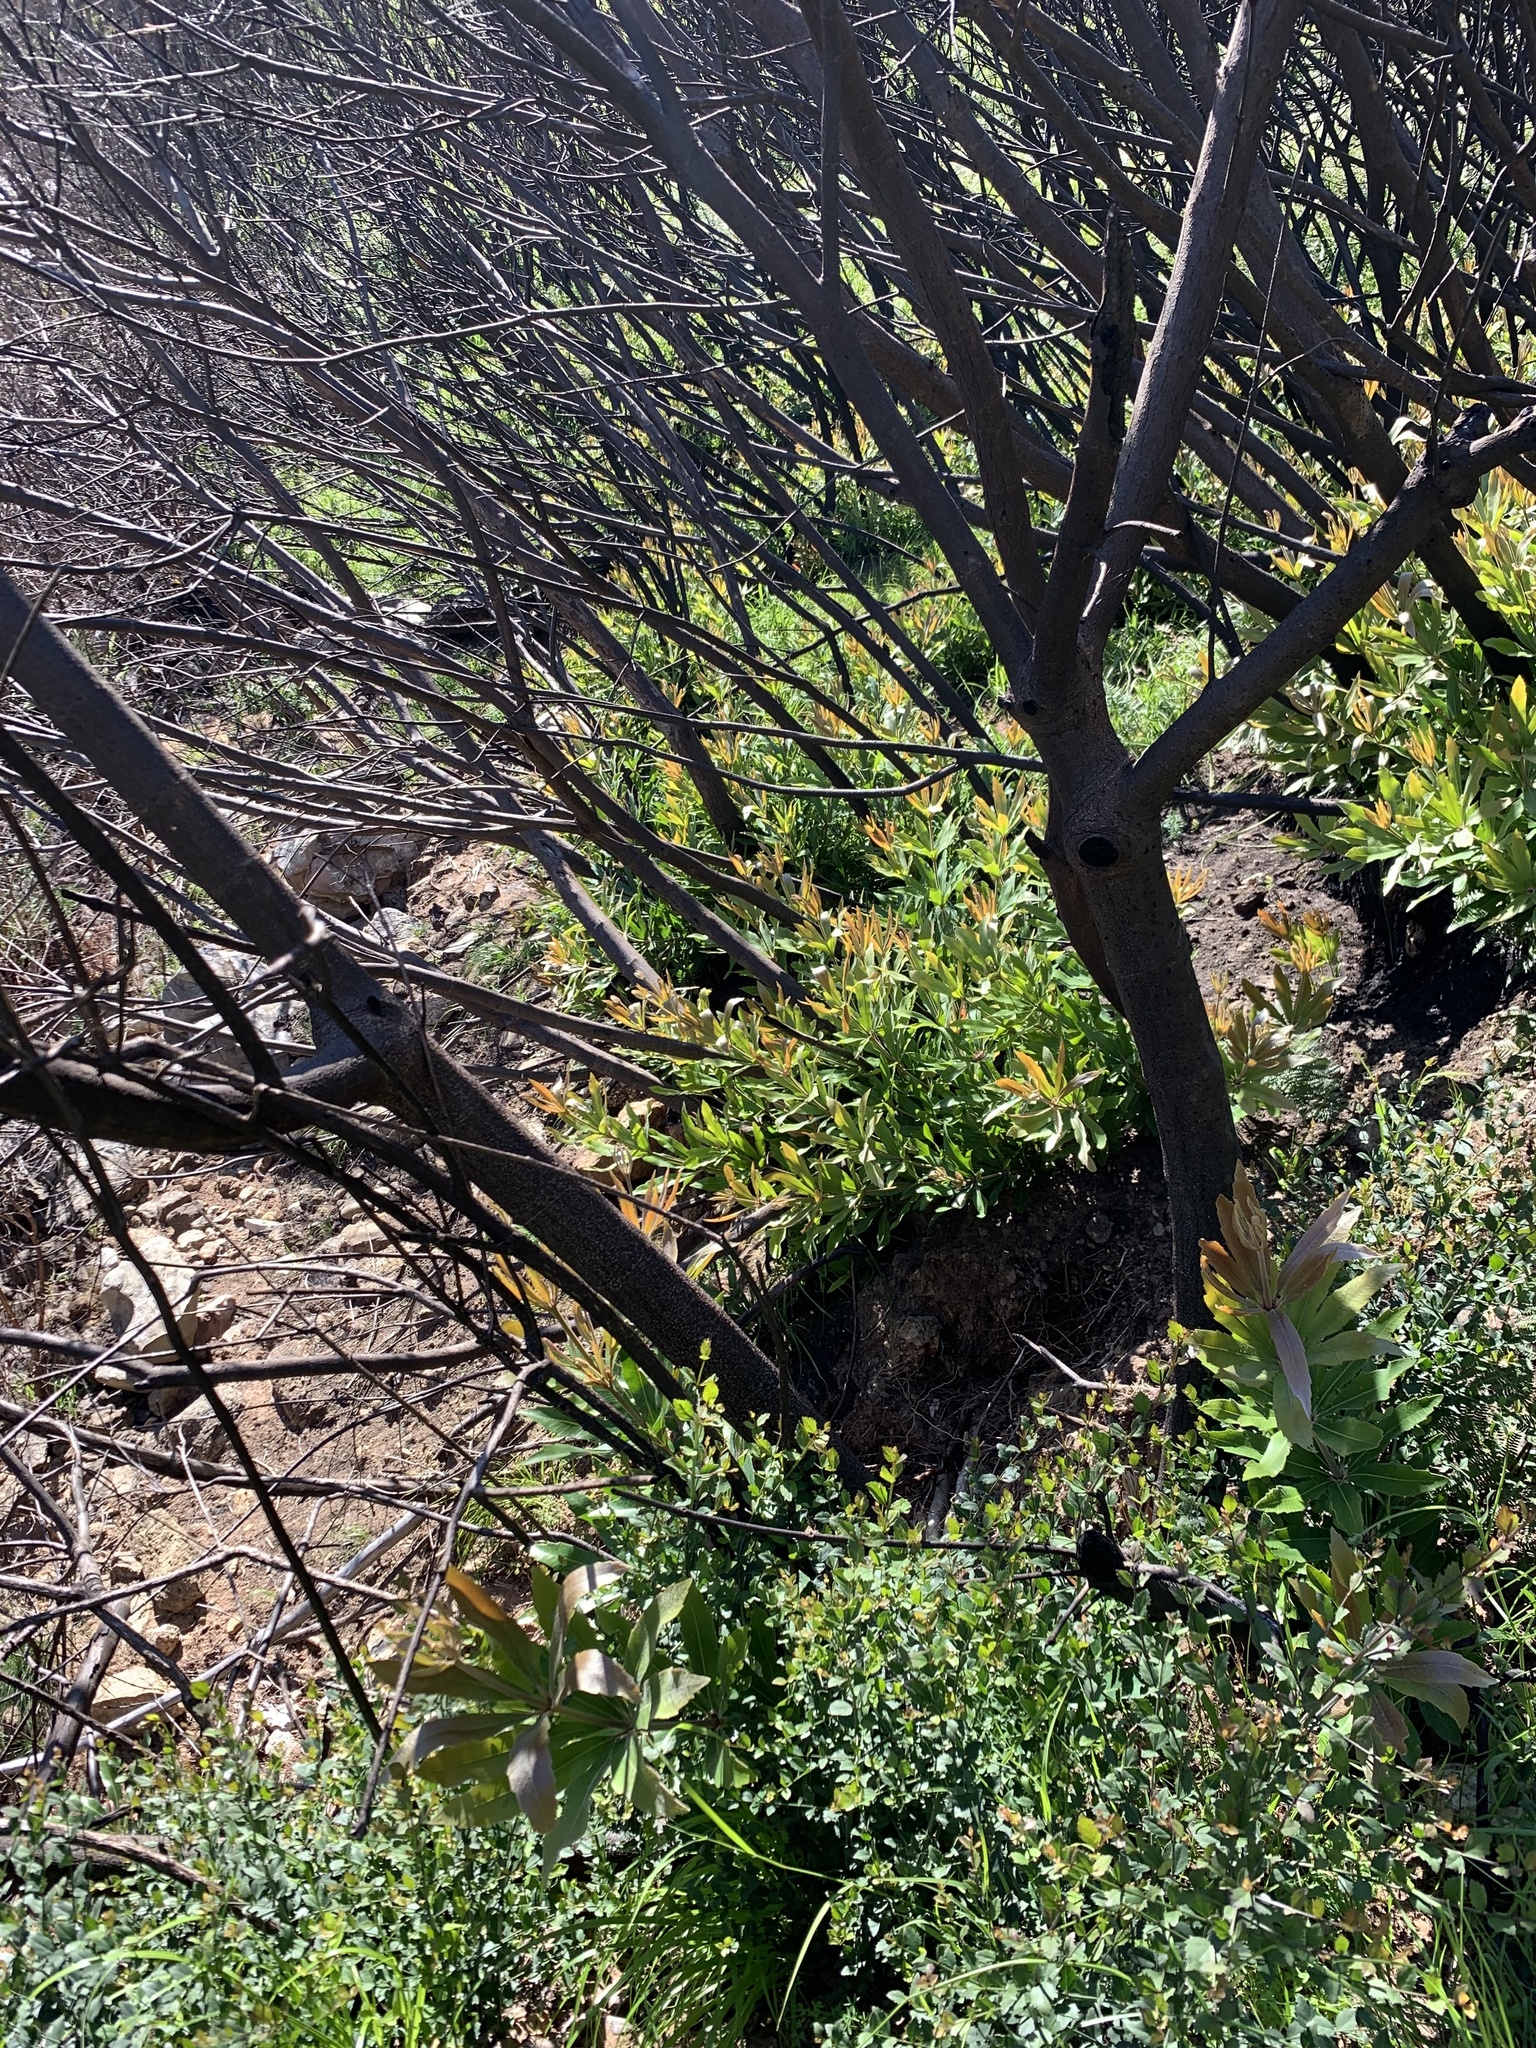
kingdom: Plantae
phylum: Tracheophyta
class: Magnoliopsida
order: Proteales
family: Proteaceae
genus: Brabejum
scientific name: Brabejum stellatifolium
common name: Wild almond
